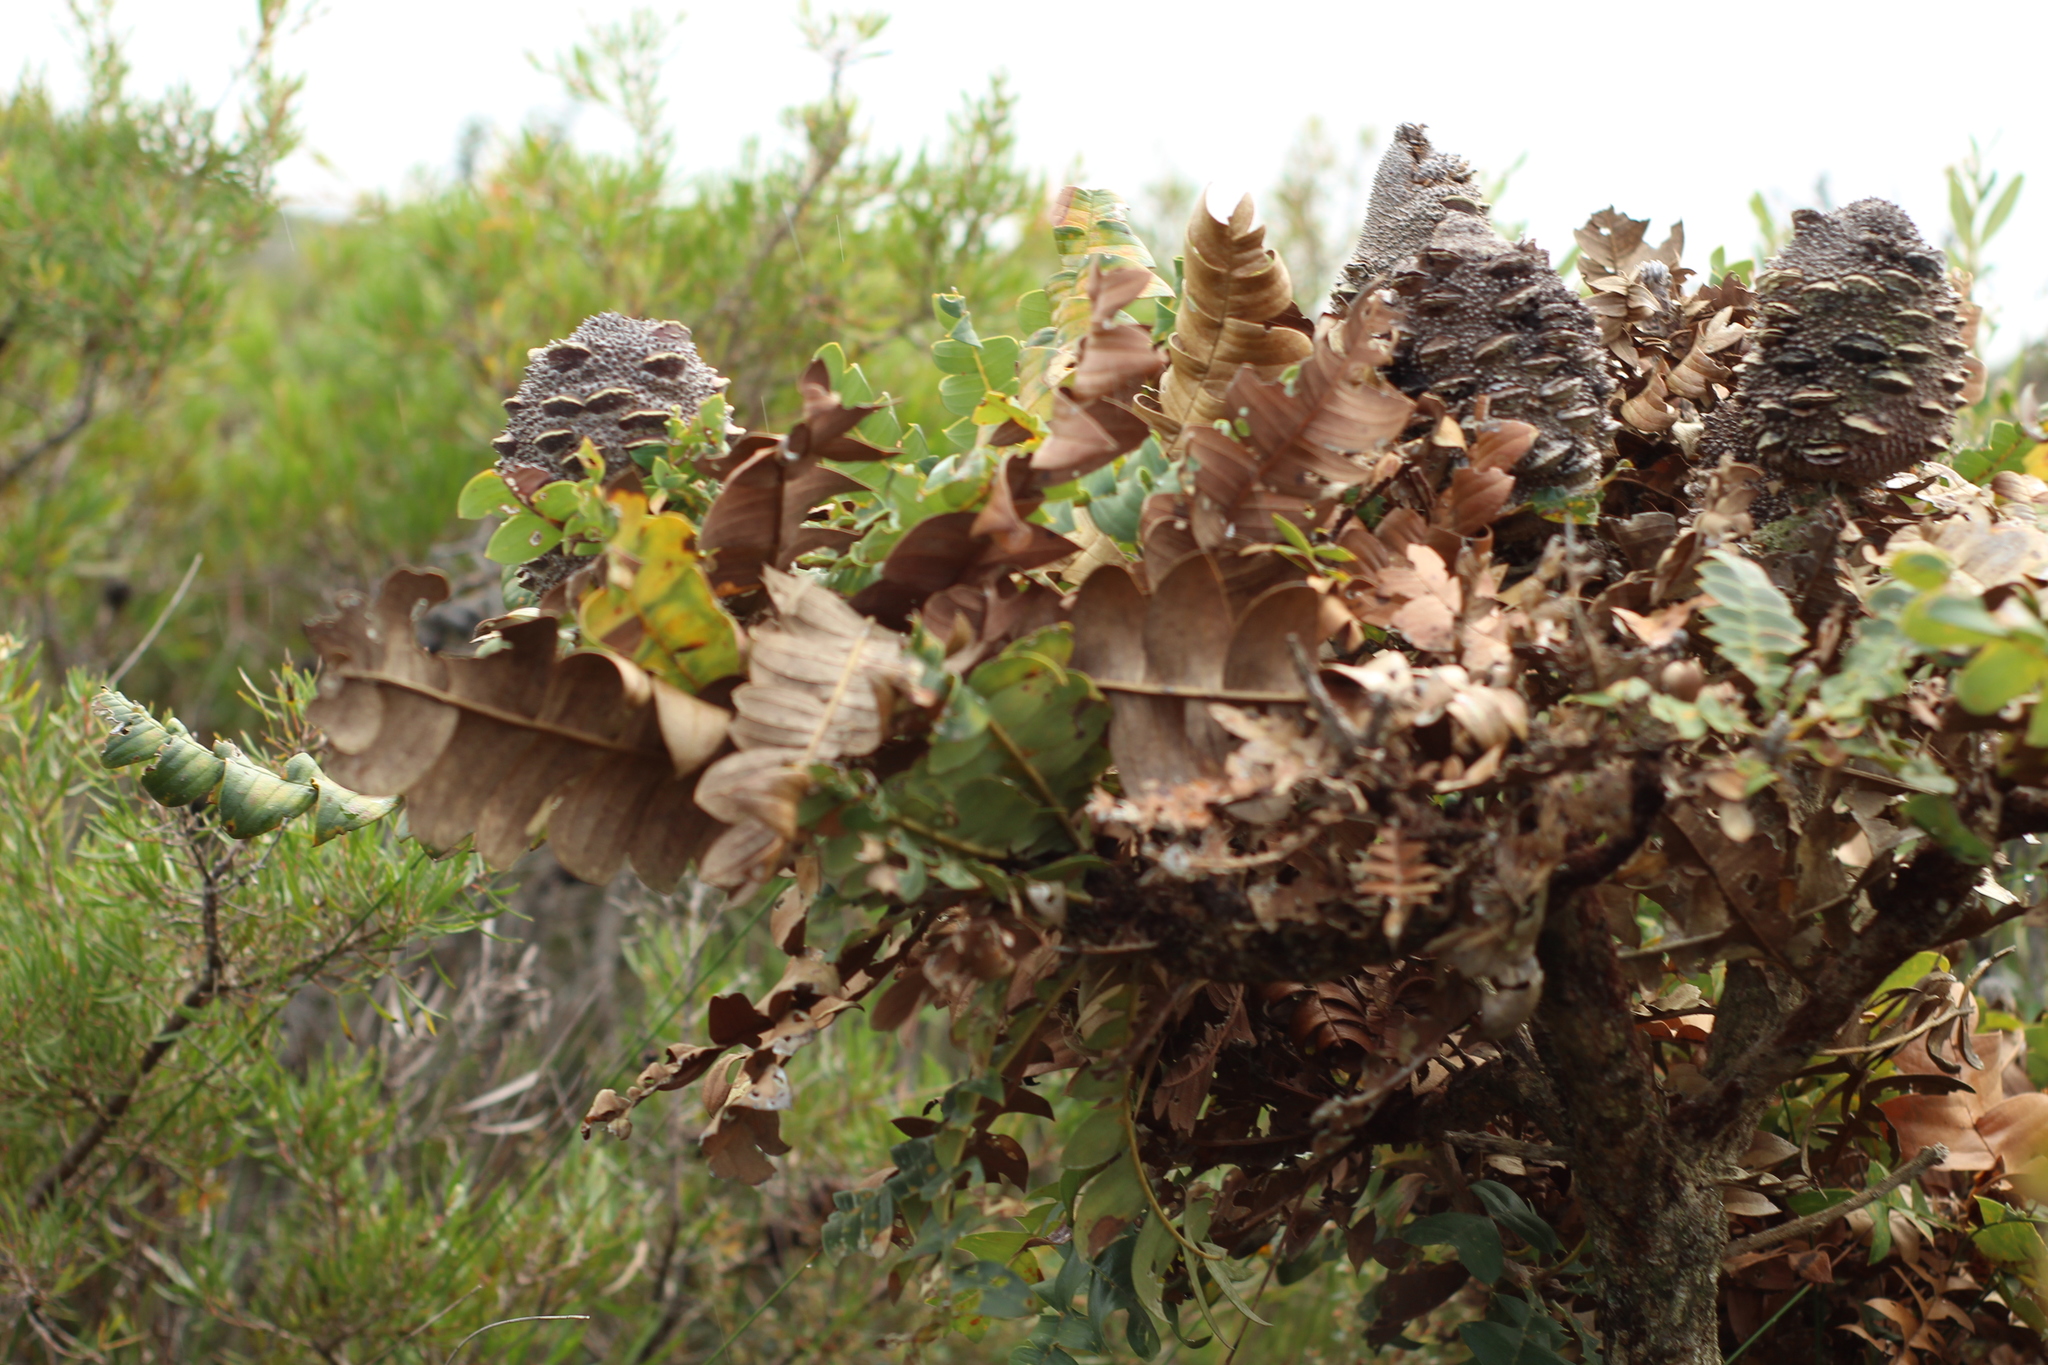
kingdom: Plantae
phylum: Tracheophyta
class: Magnoliopsida
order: Proteales
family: Proteaceae
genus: Banksia
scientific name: Banksia grandis
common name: Giant banksia
